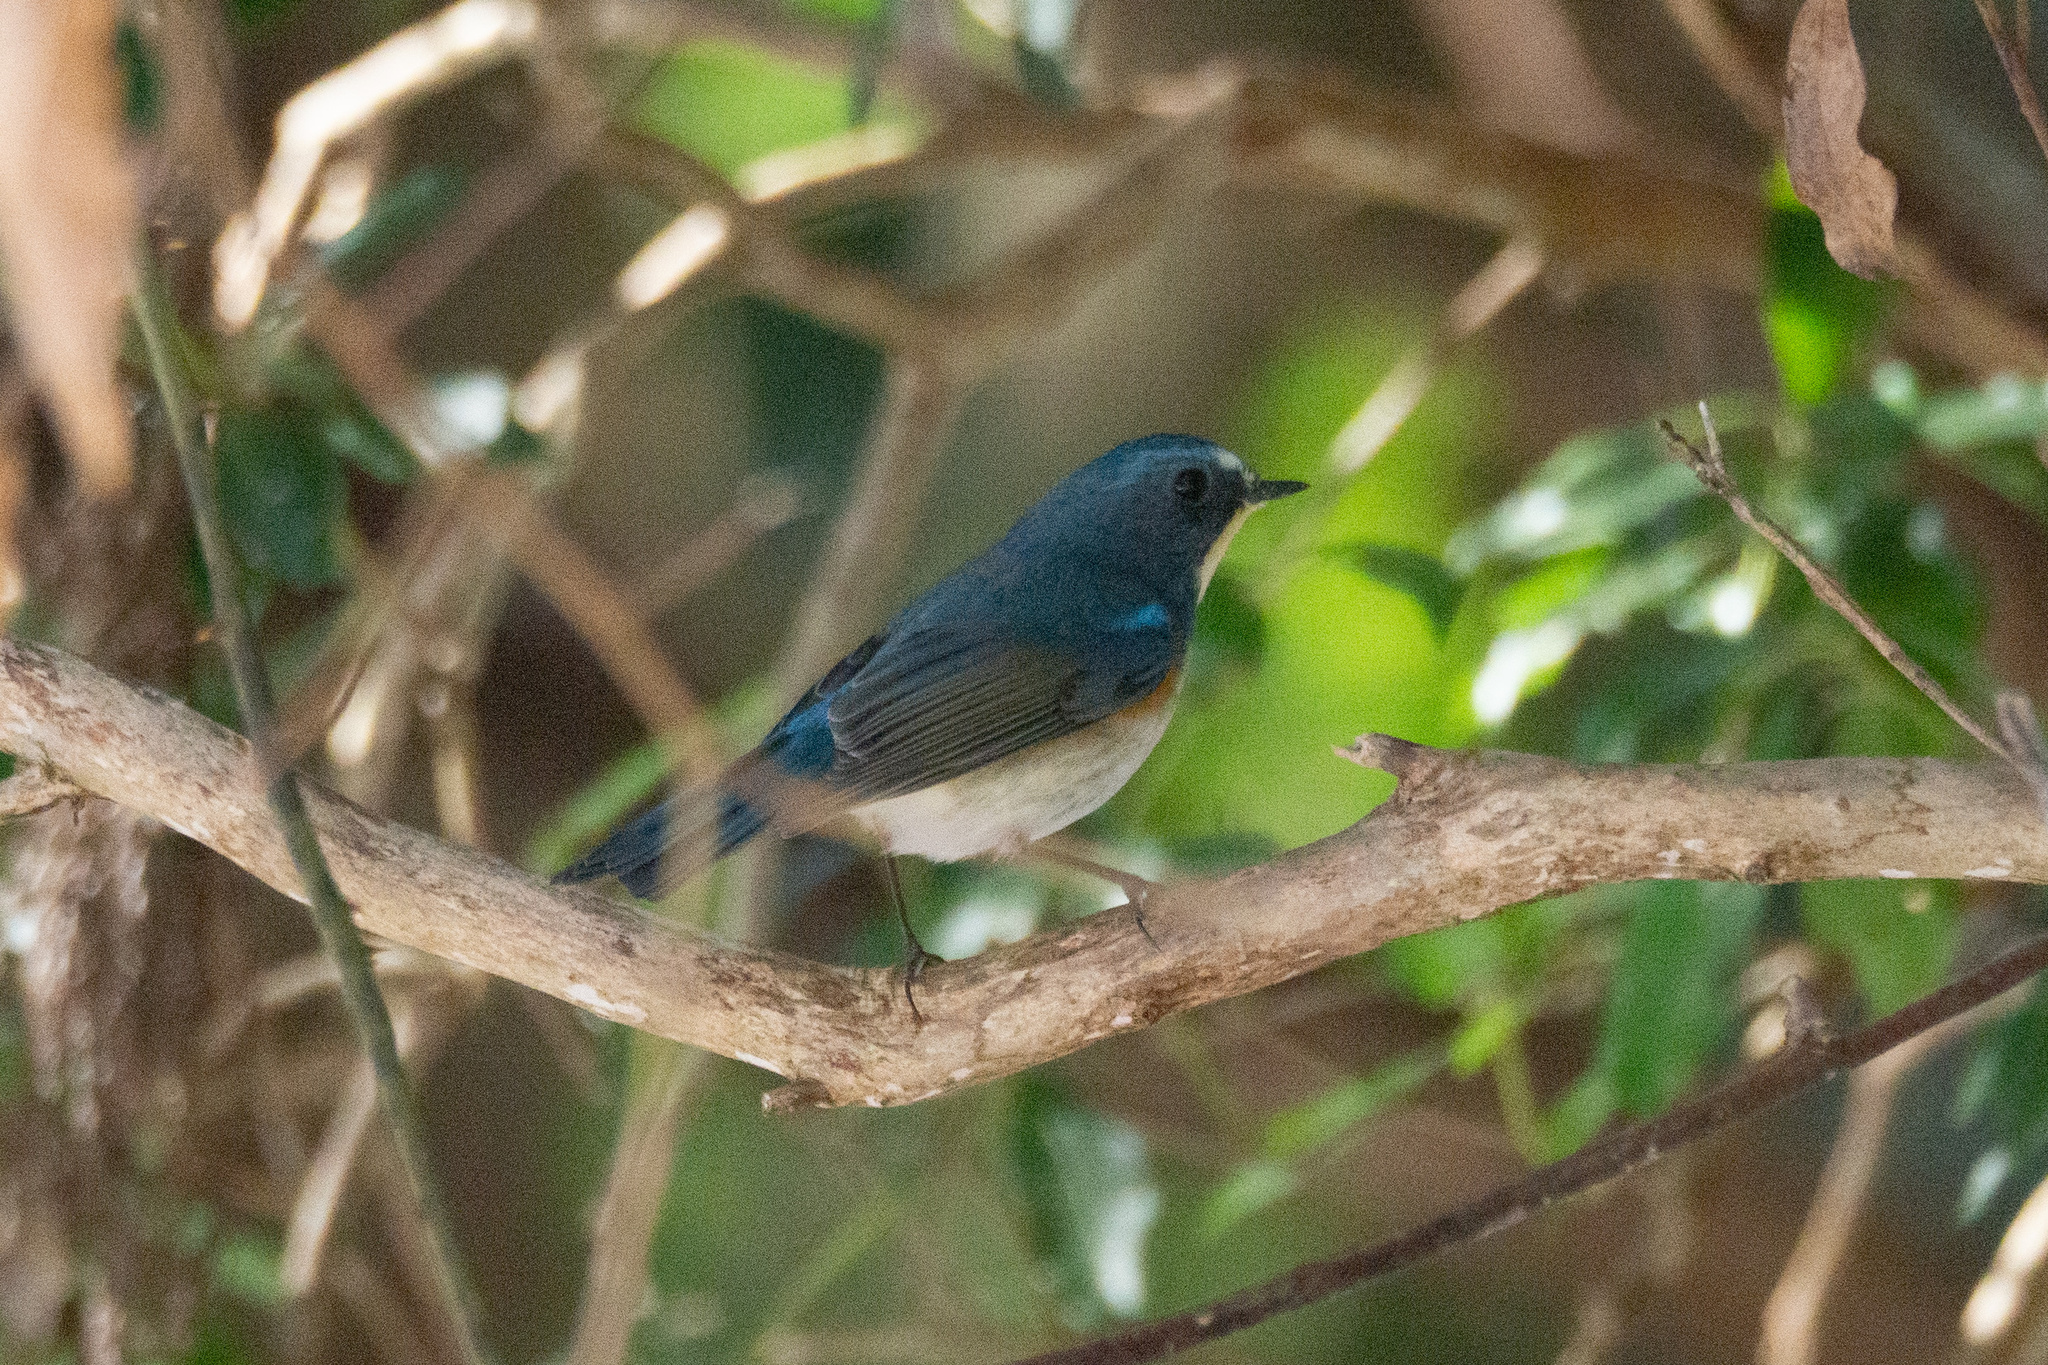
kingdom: Animalia
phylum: Chordata
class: Aves
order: Passeriformes
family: Muscicapidae
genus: Tarsiger
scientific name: Tarsiger cyanurus
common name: Red-flanked bluetail
